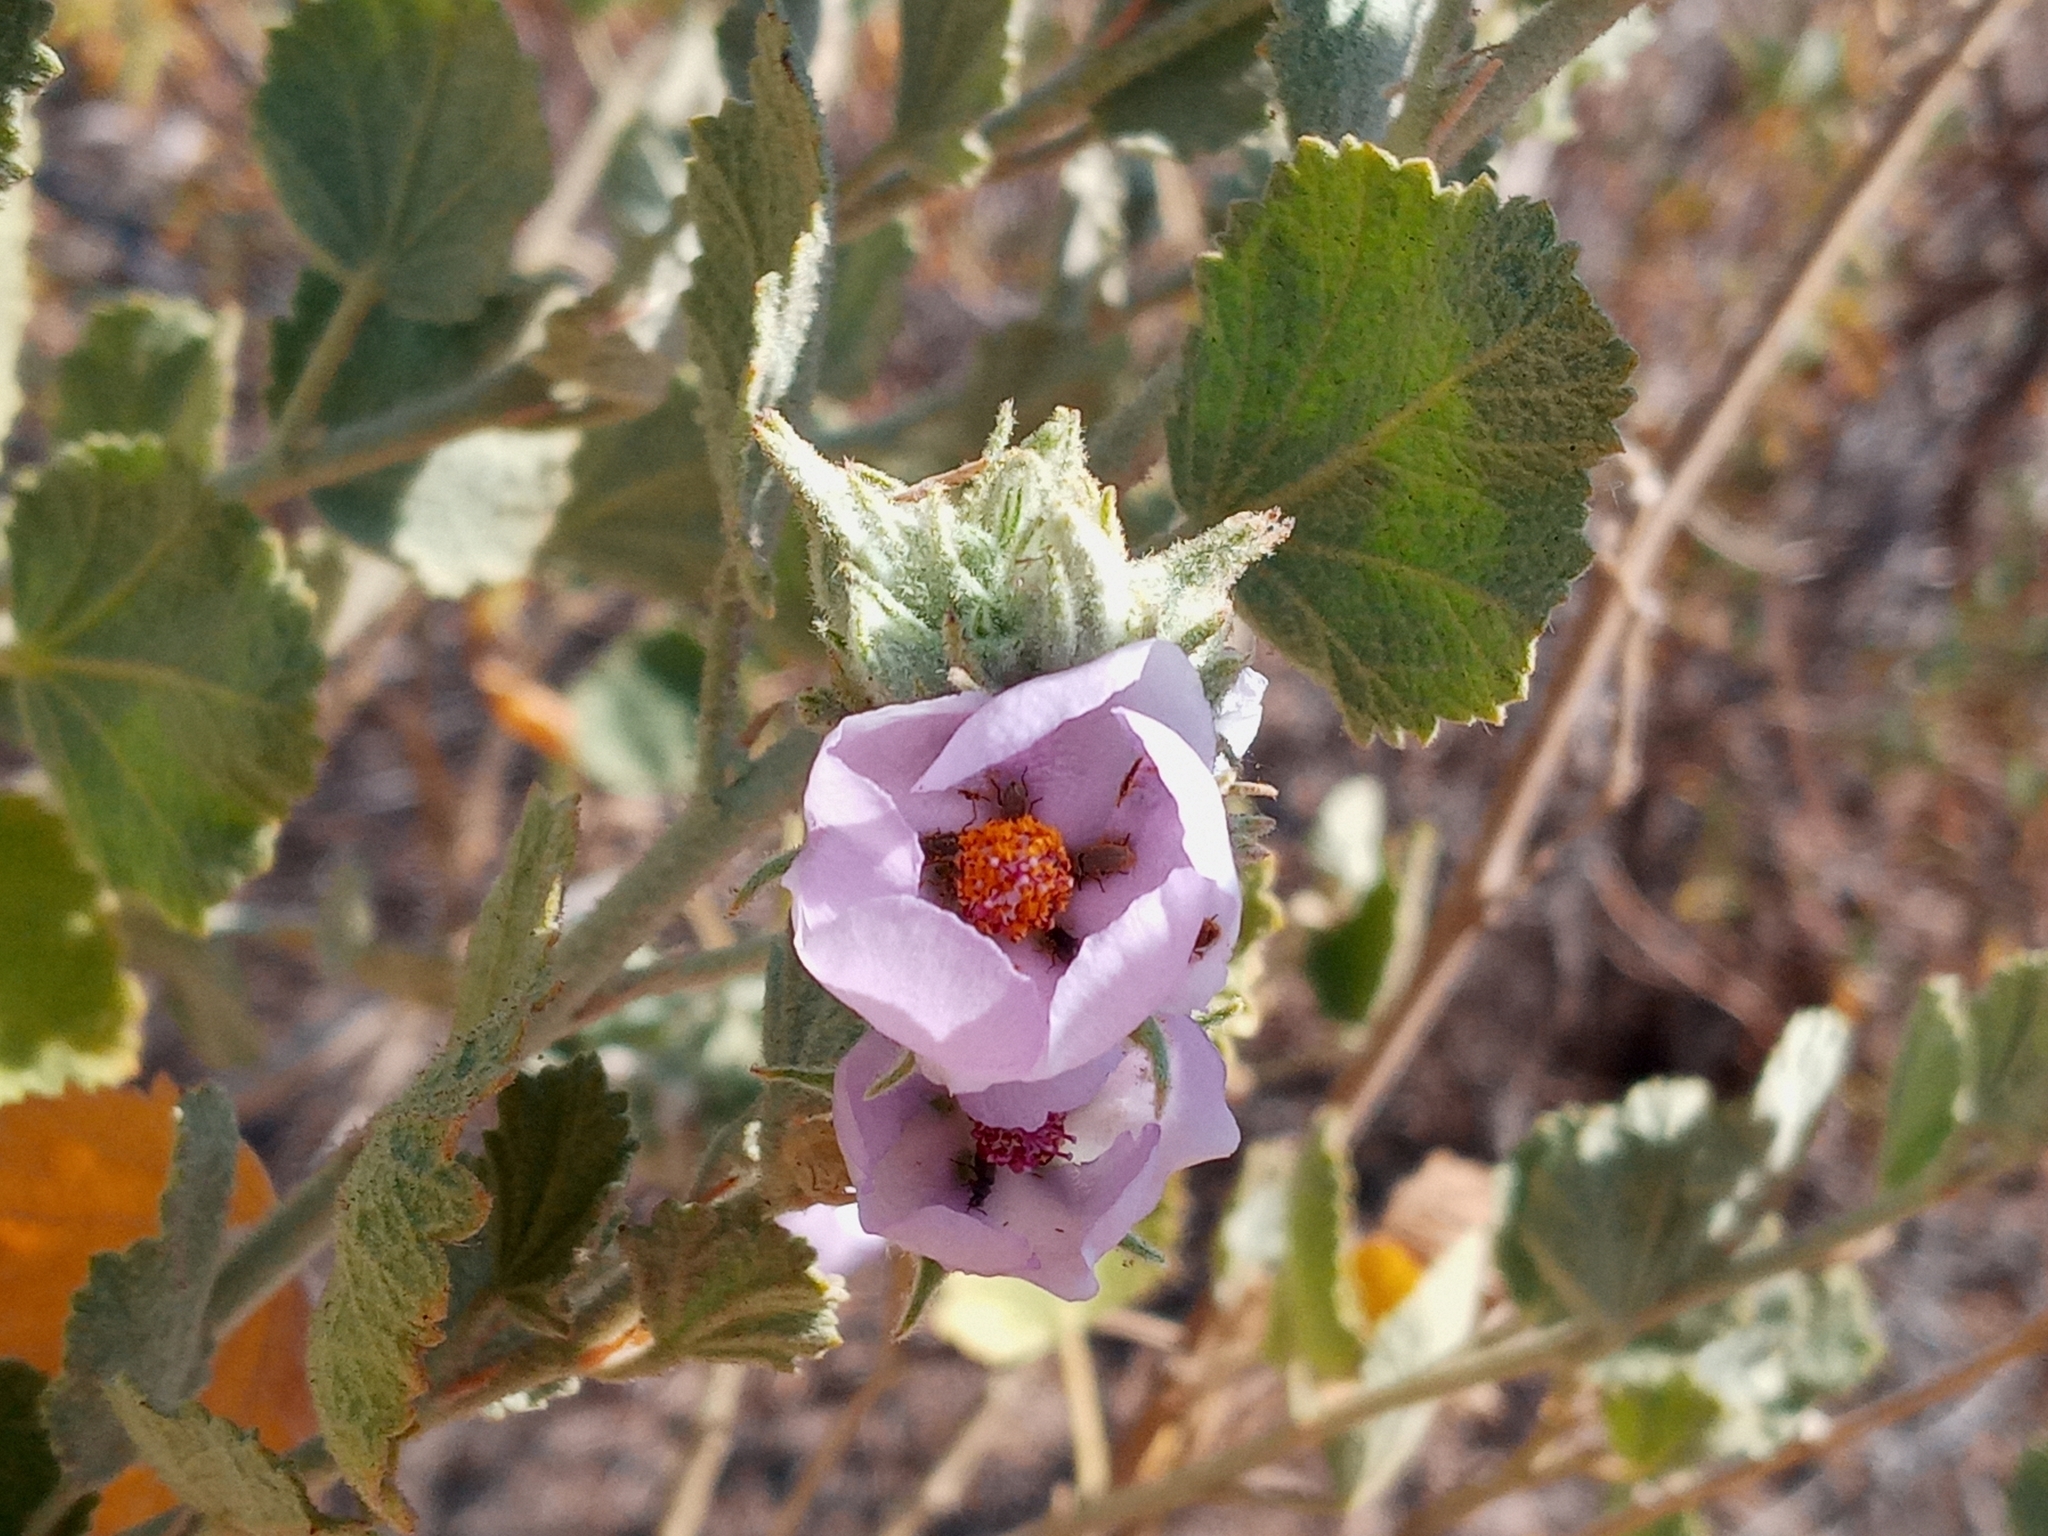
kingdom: Plantae
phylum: Tracheophyta
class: Magnoliopsida
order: Malvales
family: Malvaceae
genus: Malacothamnus
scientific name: Malacothamnus marrubioides
